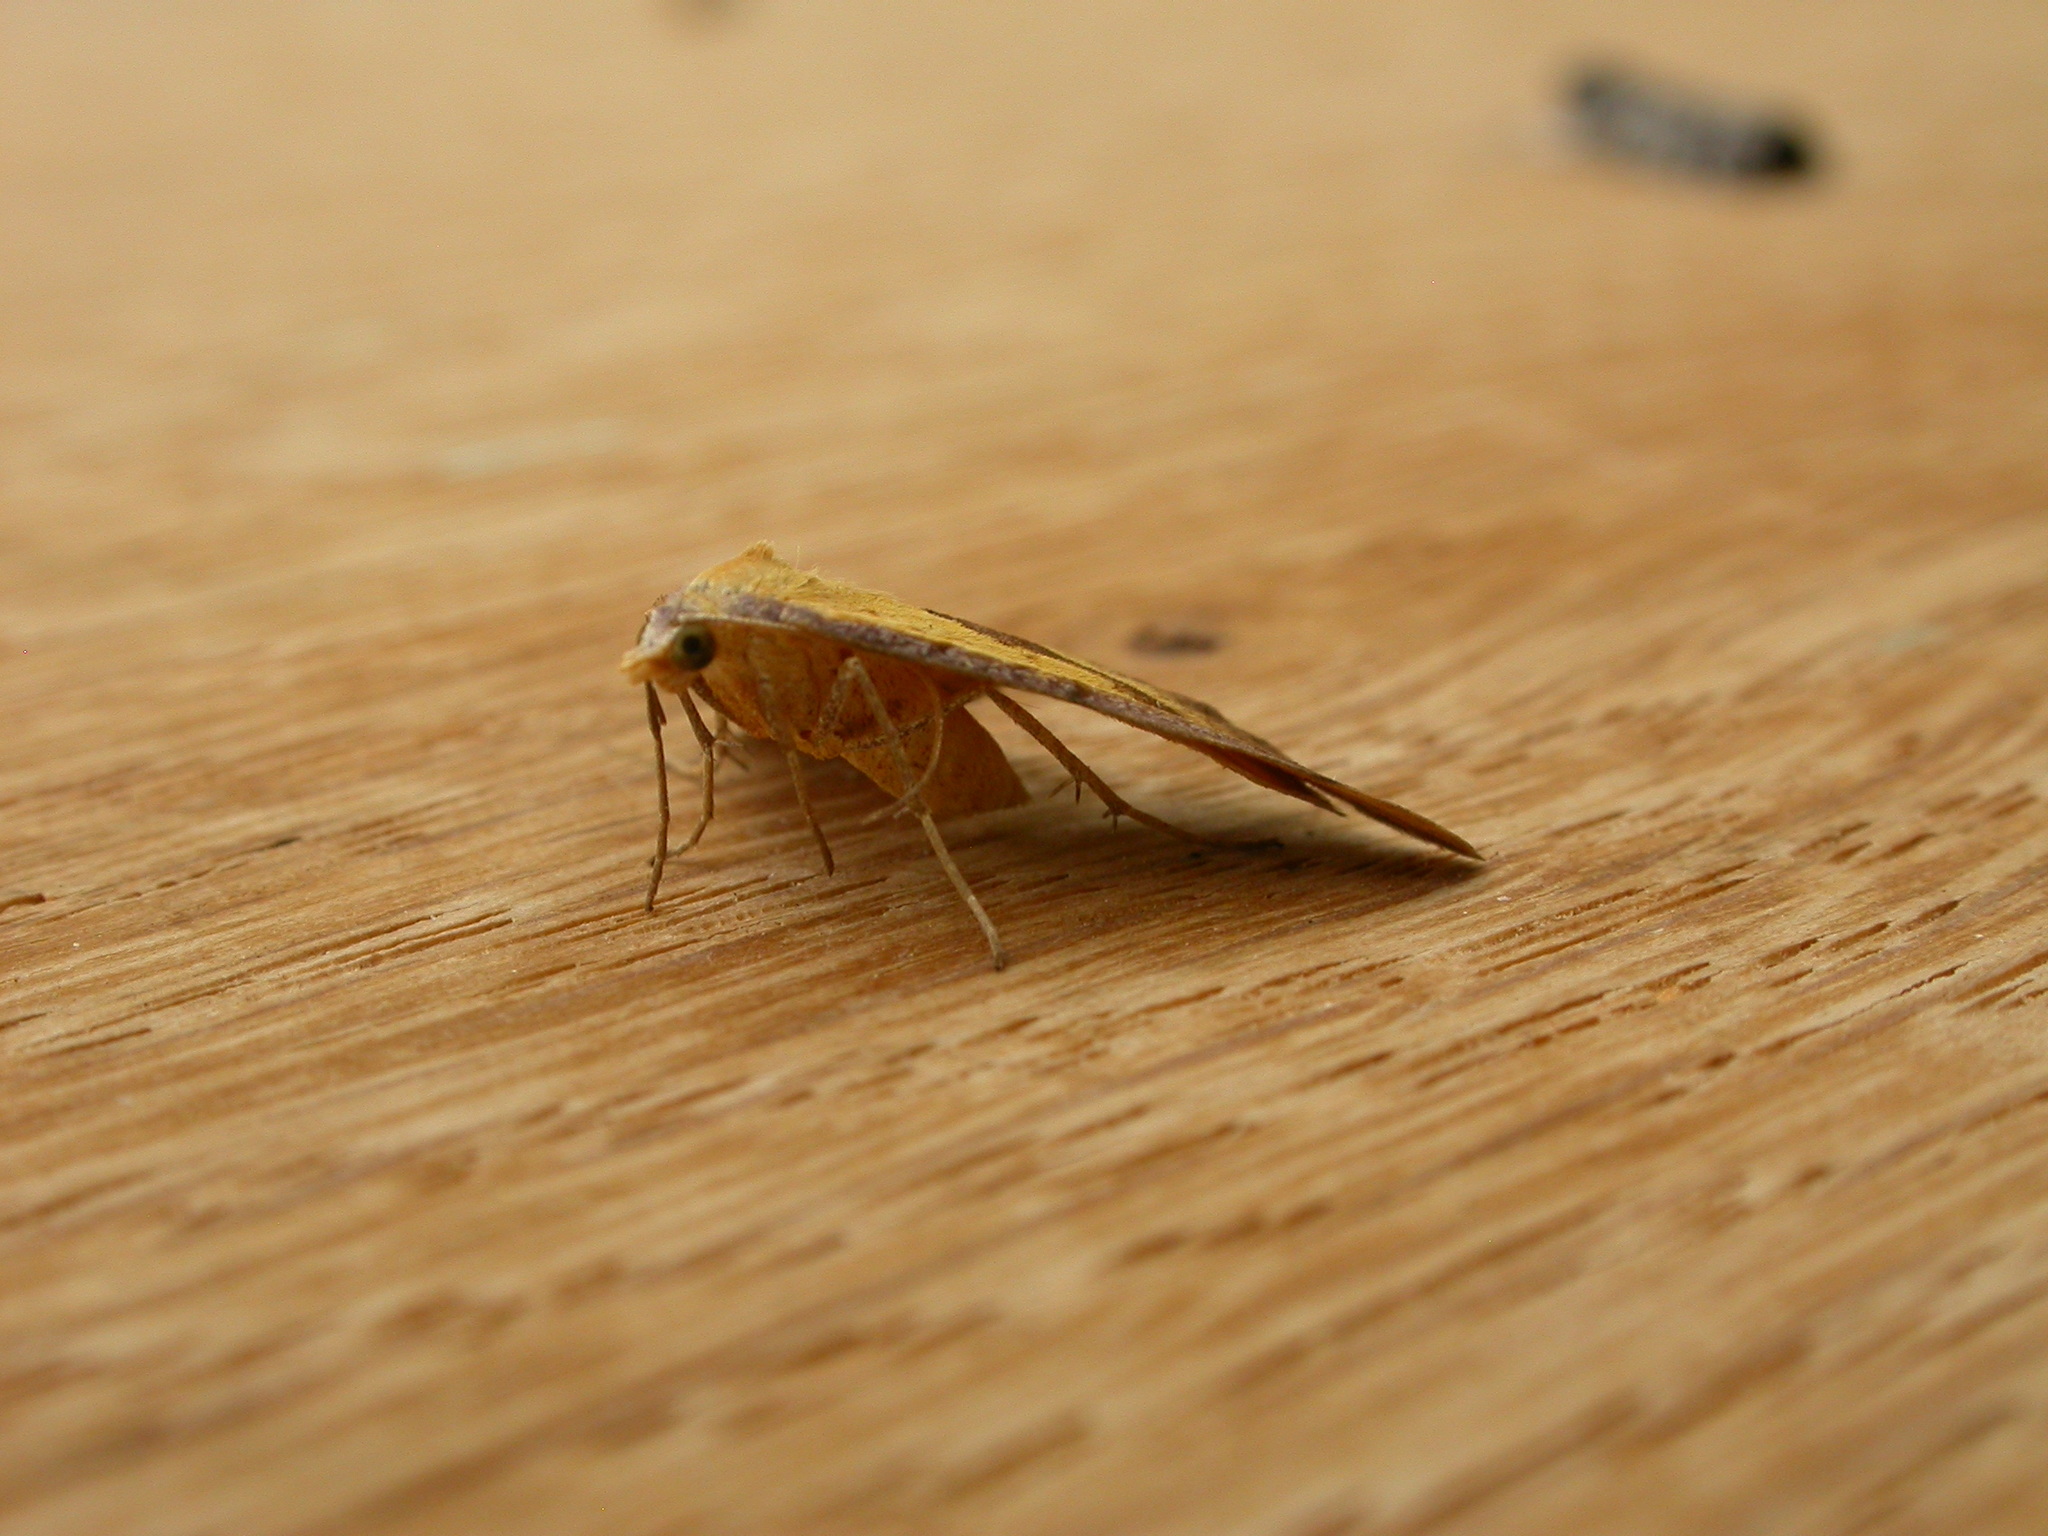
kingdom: Animalia
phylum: Arthropoda
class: Insecta
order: Lepidoptera
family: Geometridae
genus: Anachloris
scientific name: Anachloris subochraria
